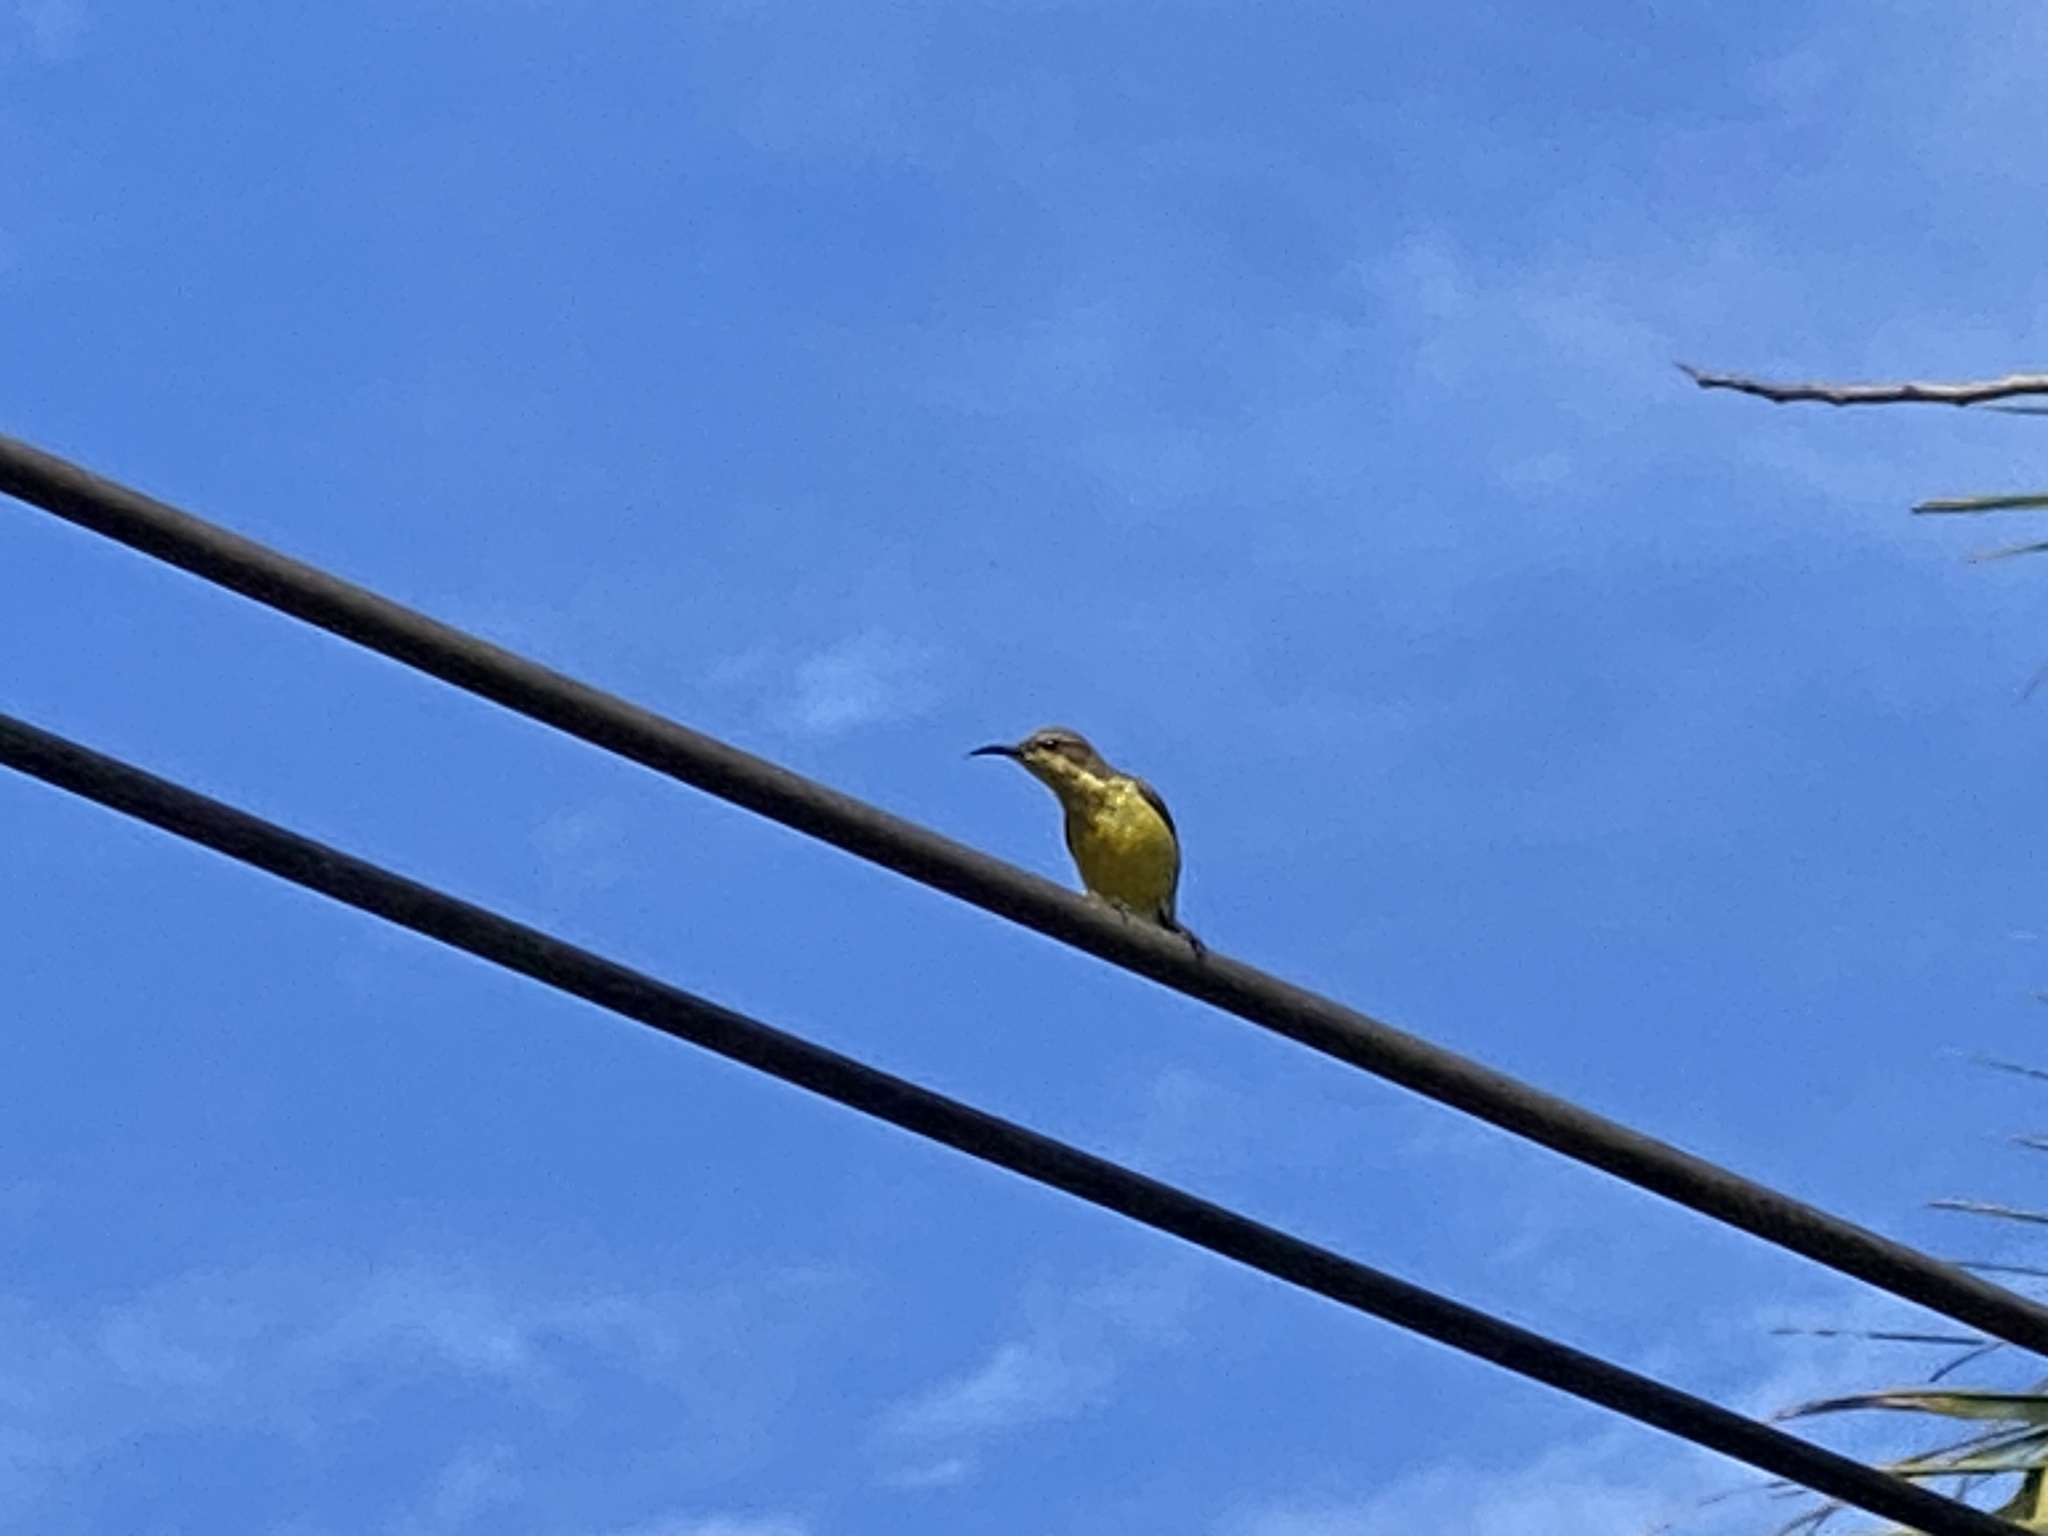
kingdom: Animalia
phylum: Chordata
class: Aves
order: Passeriformes
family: Nectariniidae
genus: Cinnyris
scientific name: Cinnyris
